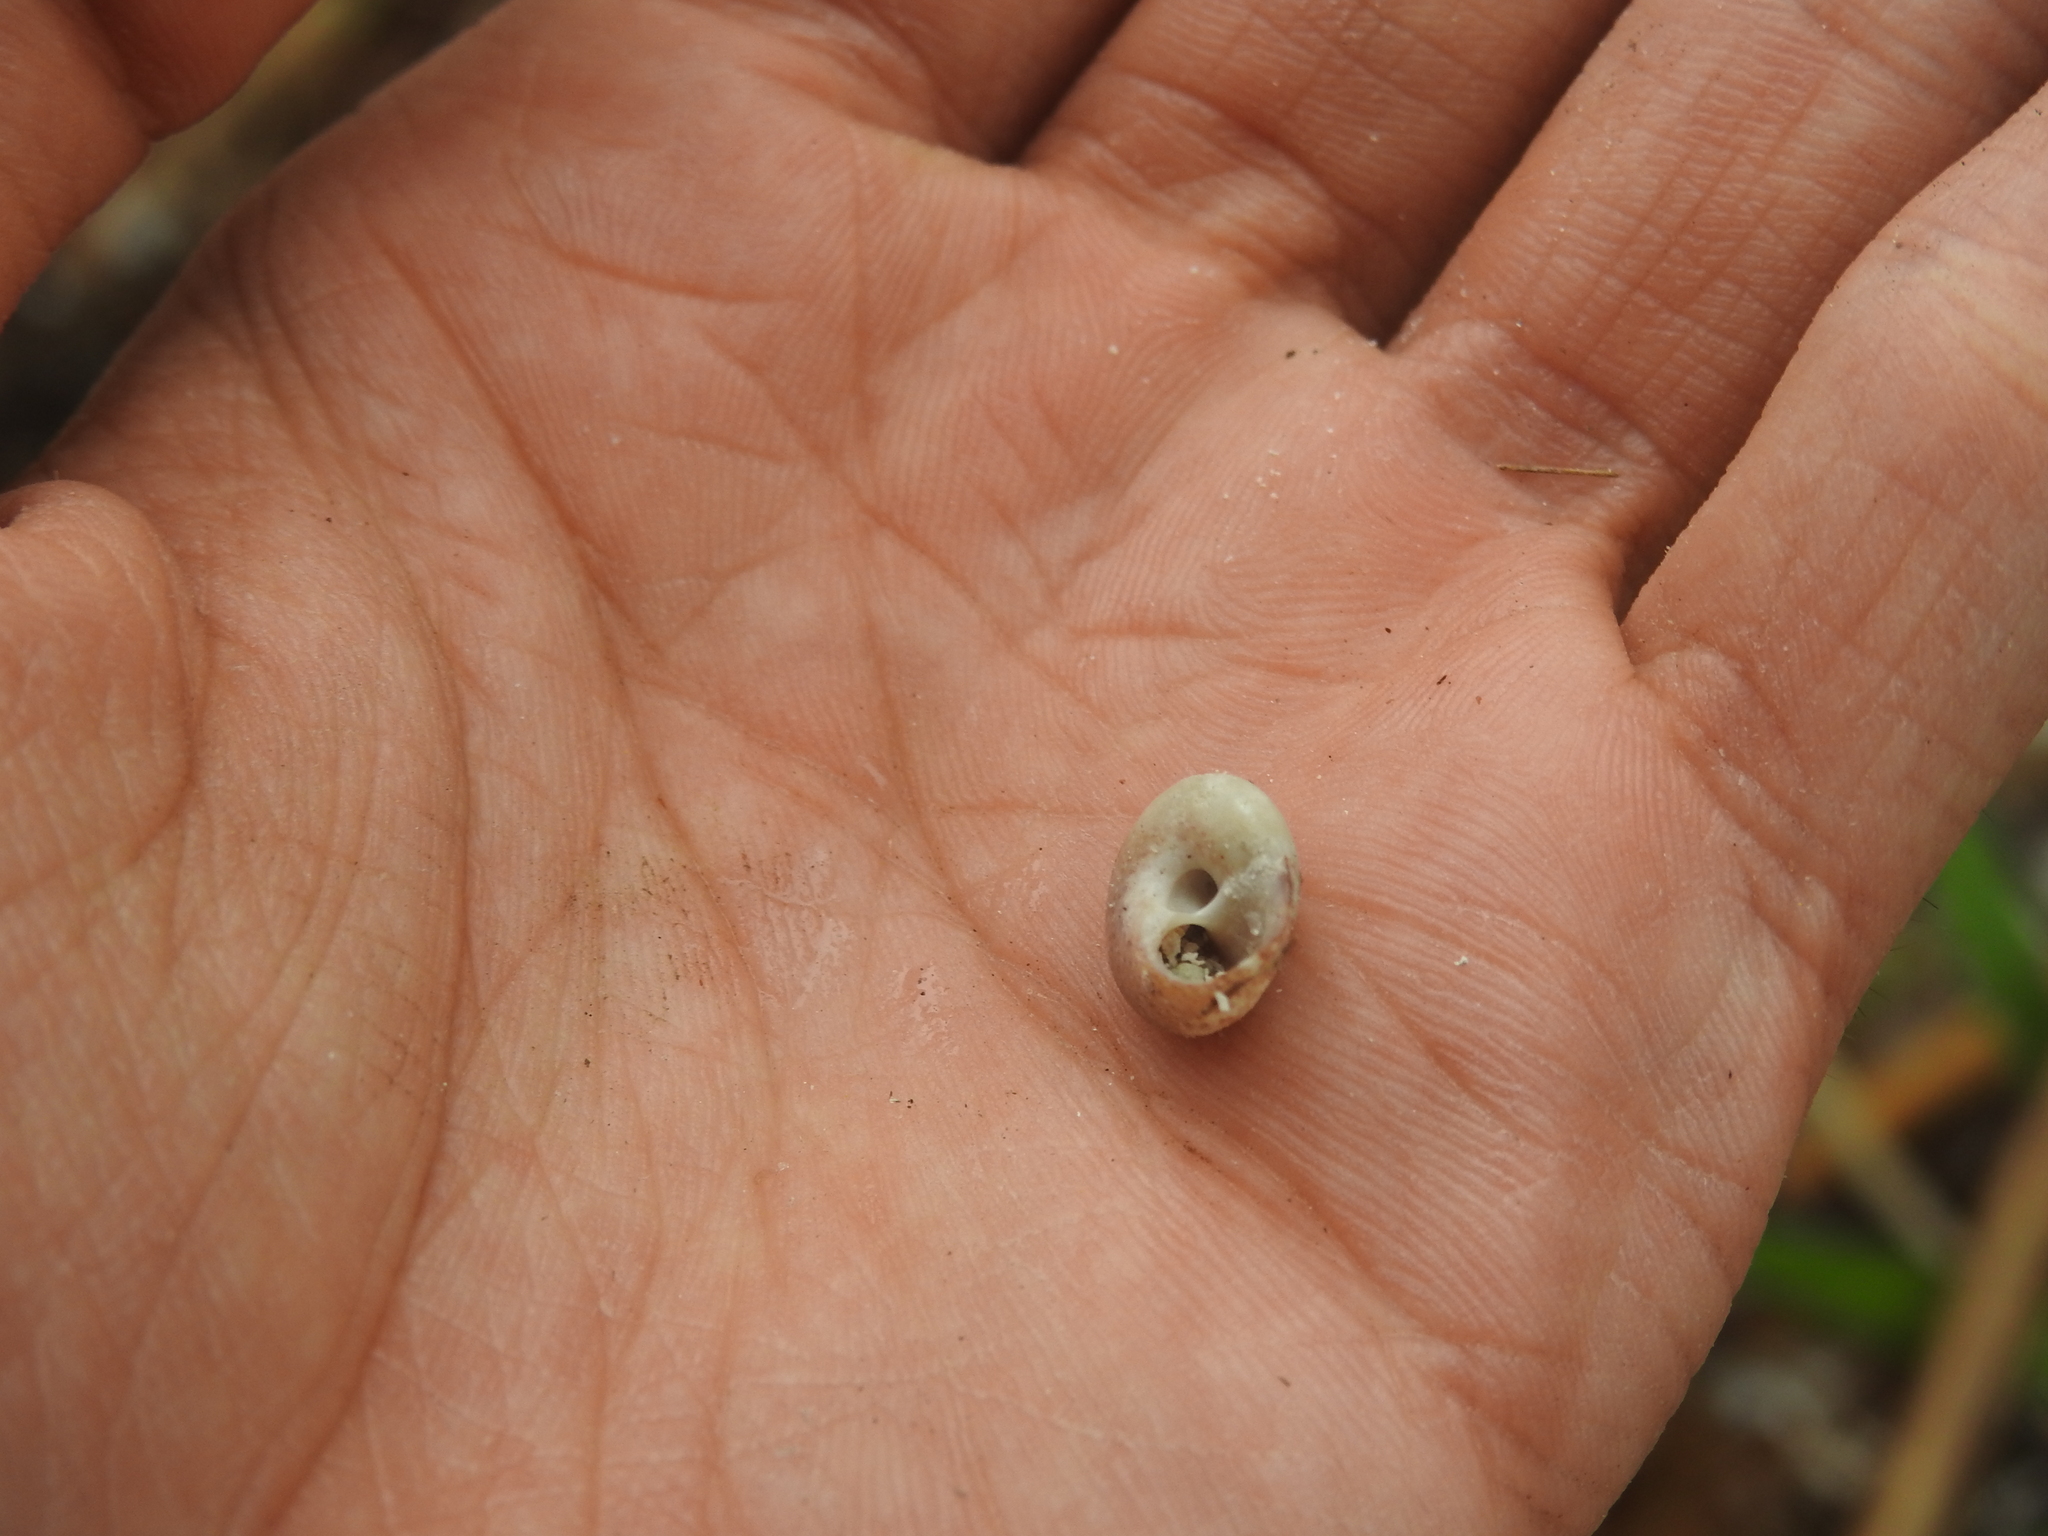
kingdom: Animalia
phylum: Mollusca
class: Gastropoda
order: Trochida
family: Tegulidae
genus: Agathistoma
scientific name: Agathistoma fasciatum
